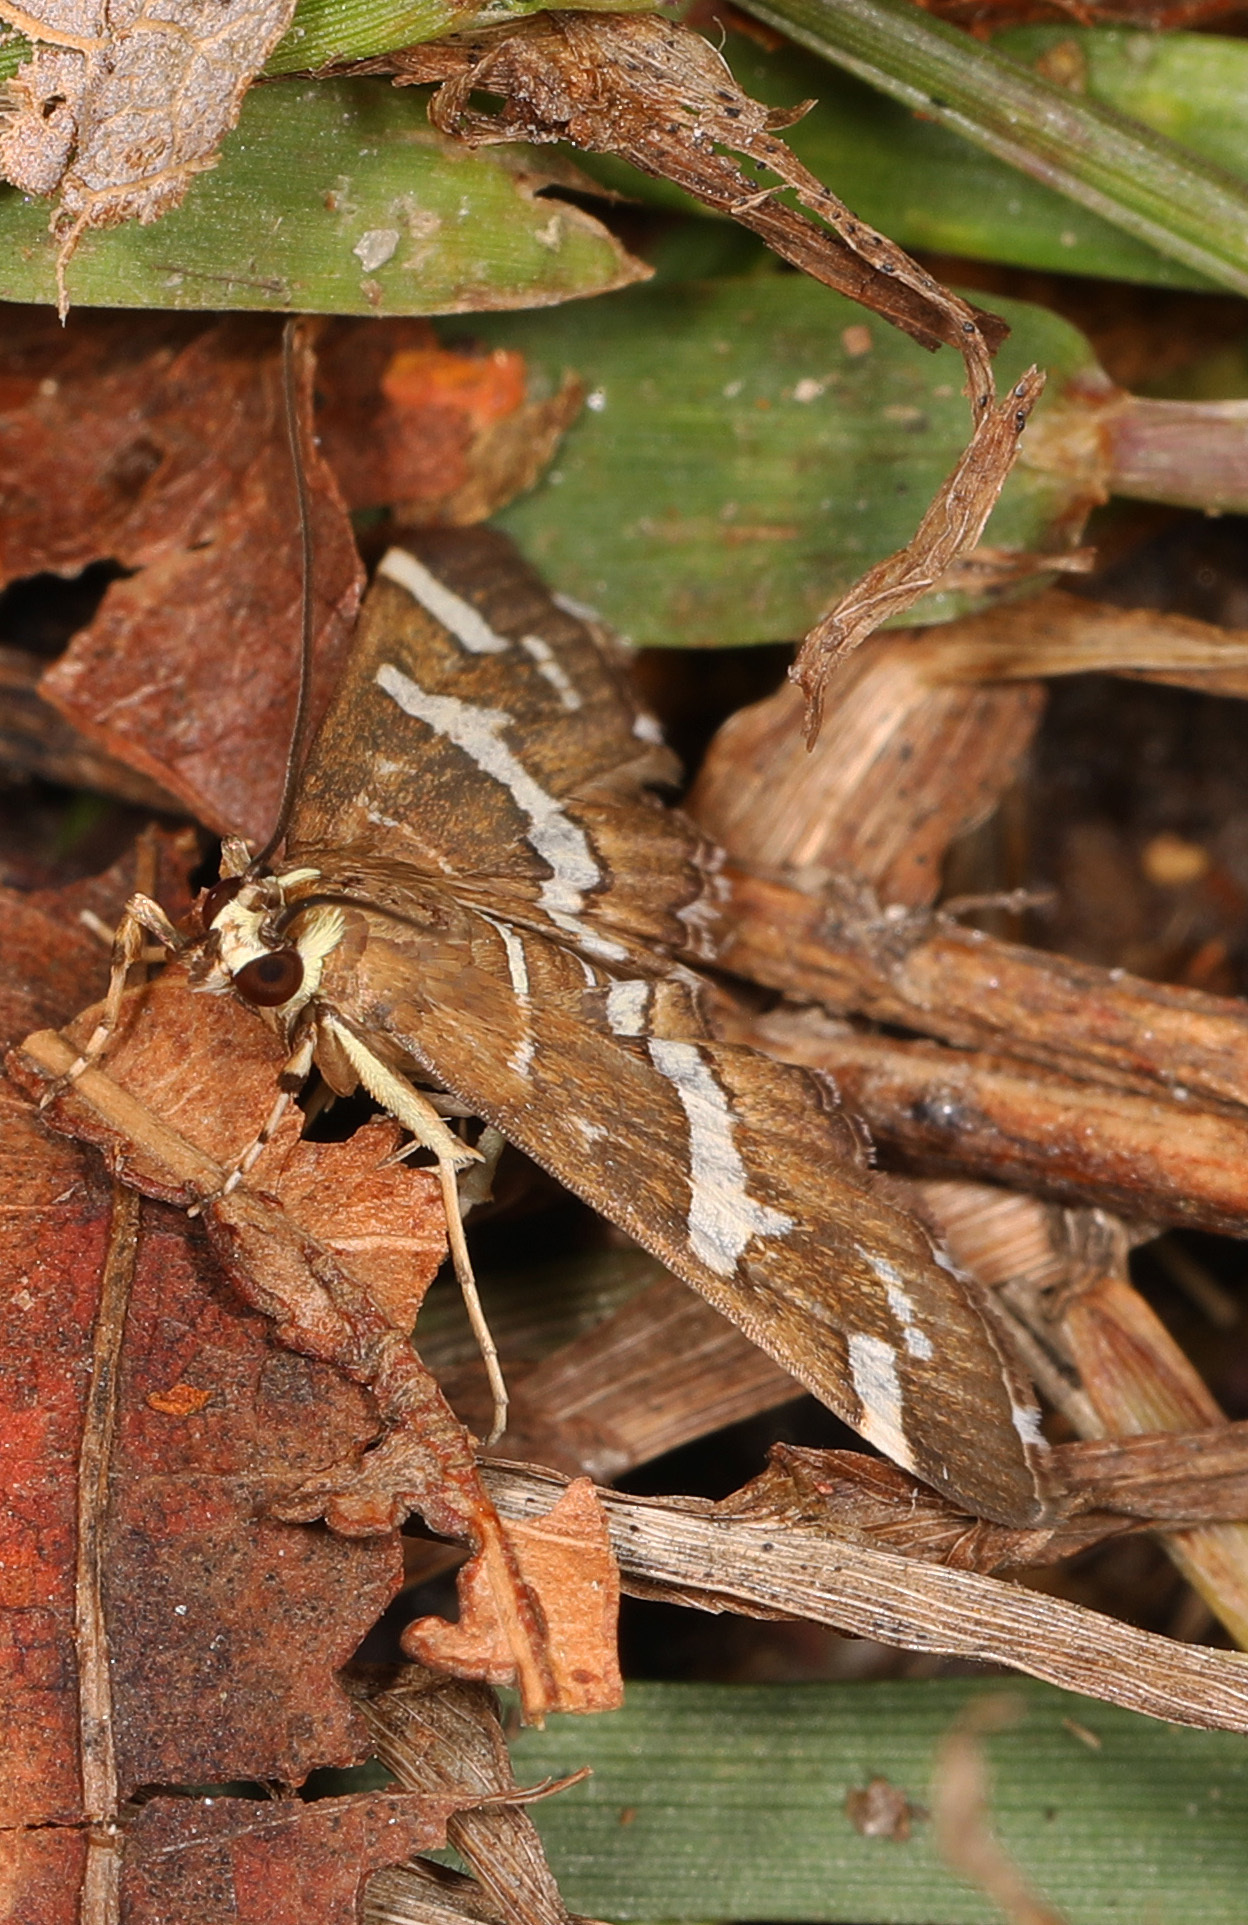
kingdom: Animalia
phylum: Arthropoda
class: Insecta
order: Lepidoptera
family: Crambidae
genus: Spoladea
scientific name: Spoladea recurvalis
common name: Beet webworm moth
